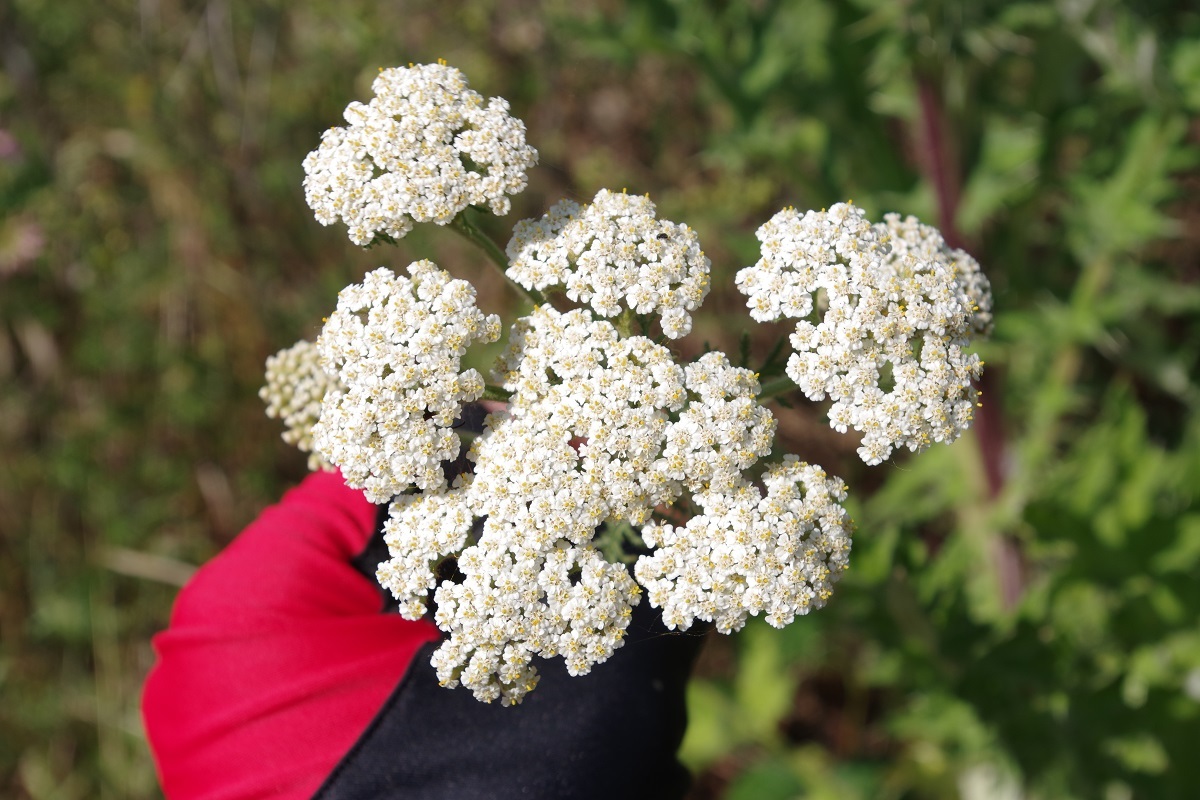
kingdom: Plantae
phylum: Tracheophyta
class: Magnoliopsida
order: Asterales
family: Asteraceae
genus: Achillea
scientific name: Achillea nobilis
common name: Noble yarrow
